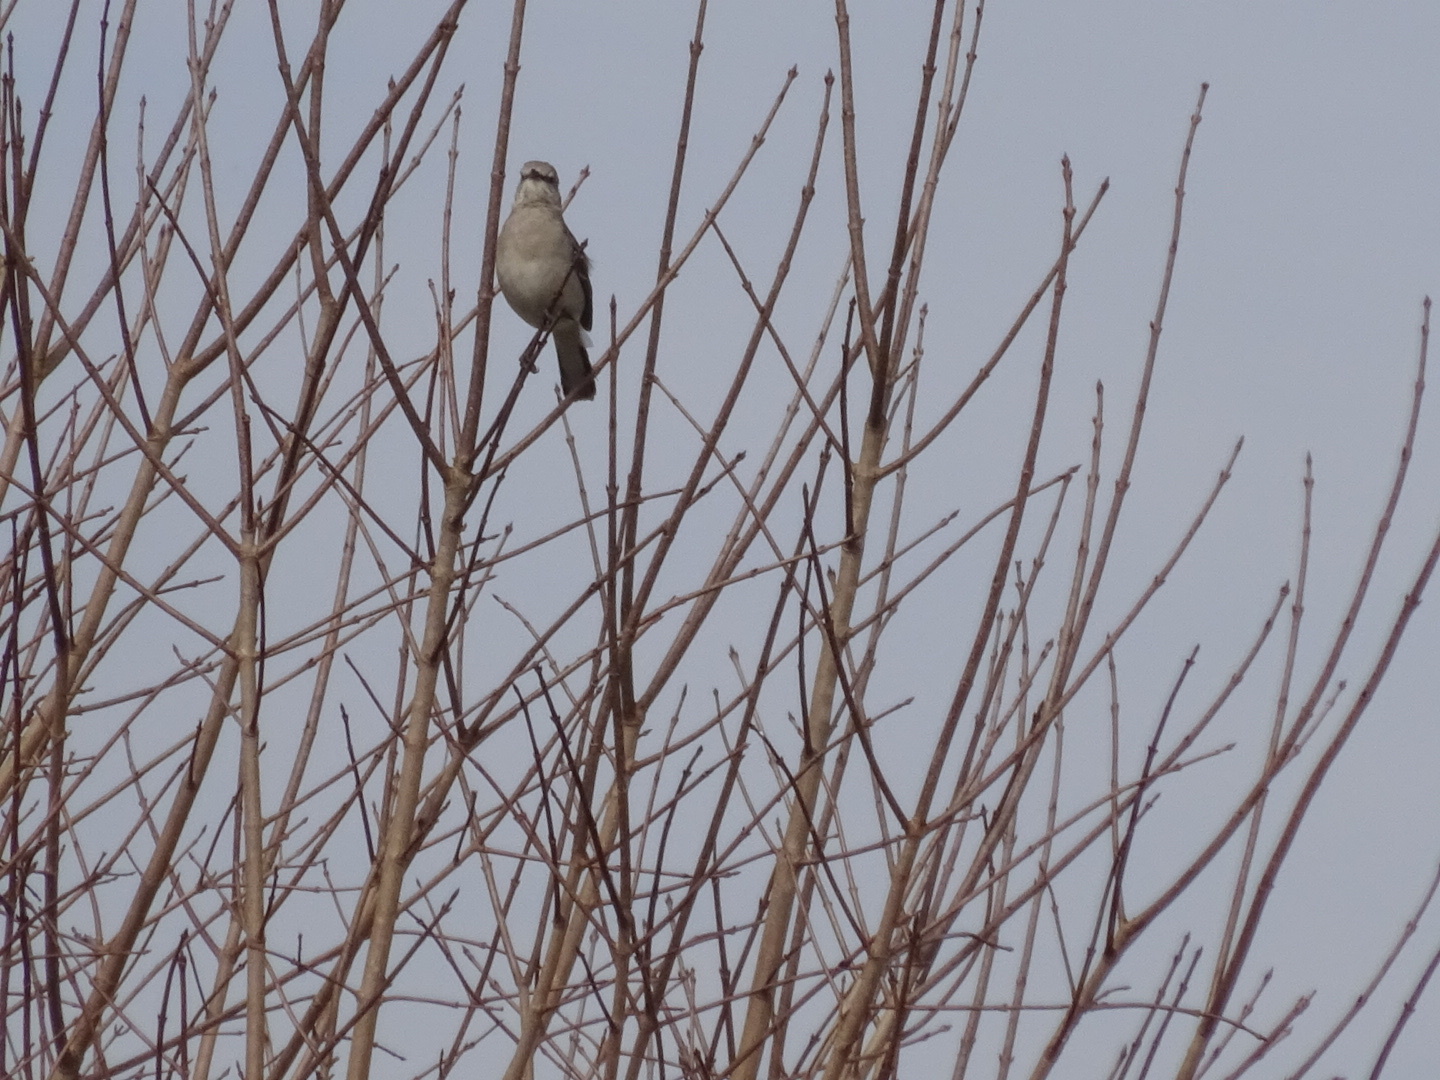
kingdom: Animalia
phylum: Chordata
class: Aves
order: Passeriformes
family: Mimidae
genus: Mimus
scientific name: Mimus polyglottos
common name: Northern mockingbird
